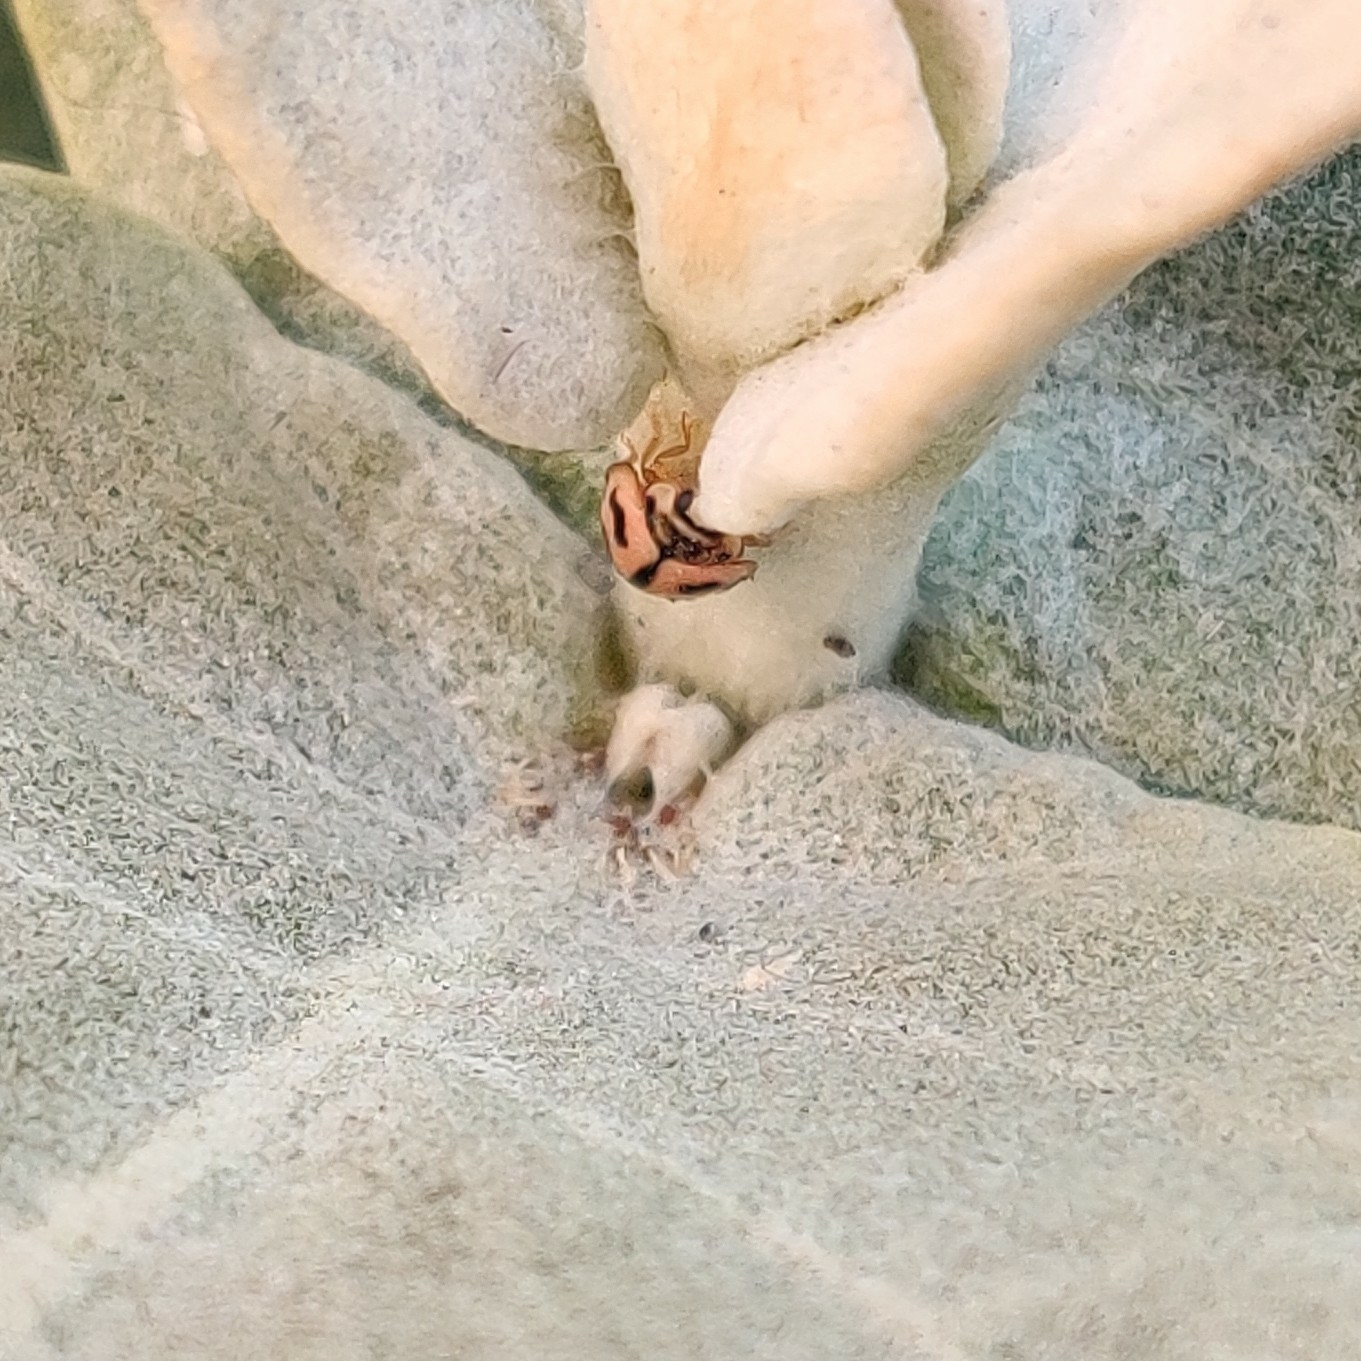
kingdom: Animalia
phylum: Arthropoda
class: Insecta
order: Coleoptera
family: Coccinellidae
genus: Cheilomenes
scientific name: Cheilomenes sexmaculata
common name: Ladybird beetle
